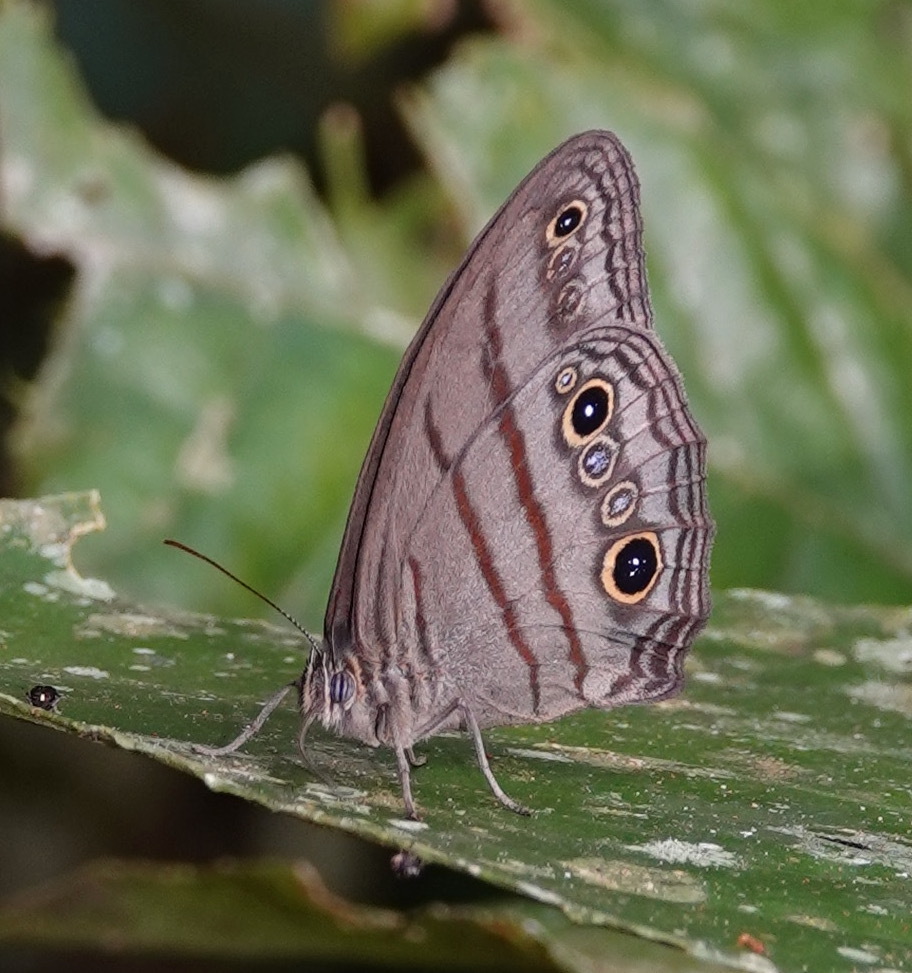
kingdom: Animalia
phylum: Arthropoda
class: Insecta
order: Lepidoptera
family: Nymphalidae
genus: Megeuptychia
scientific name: Megeuptychia antonoe
